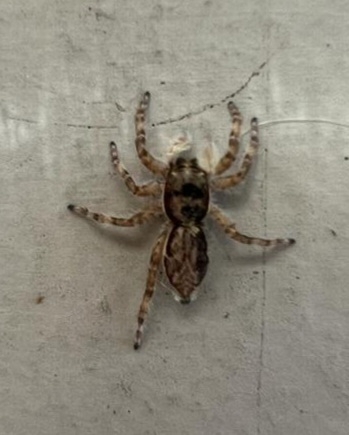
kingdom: Animalia
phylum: Arthropoda
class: Arachnida
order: Araneae
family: Salticidae
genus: Menemerus
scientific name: Menemerus bivittatus
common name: Gray wall jumper
